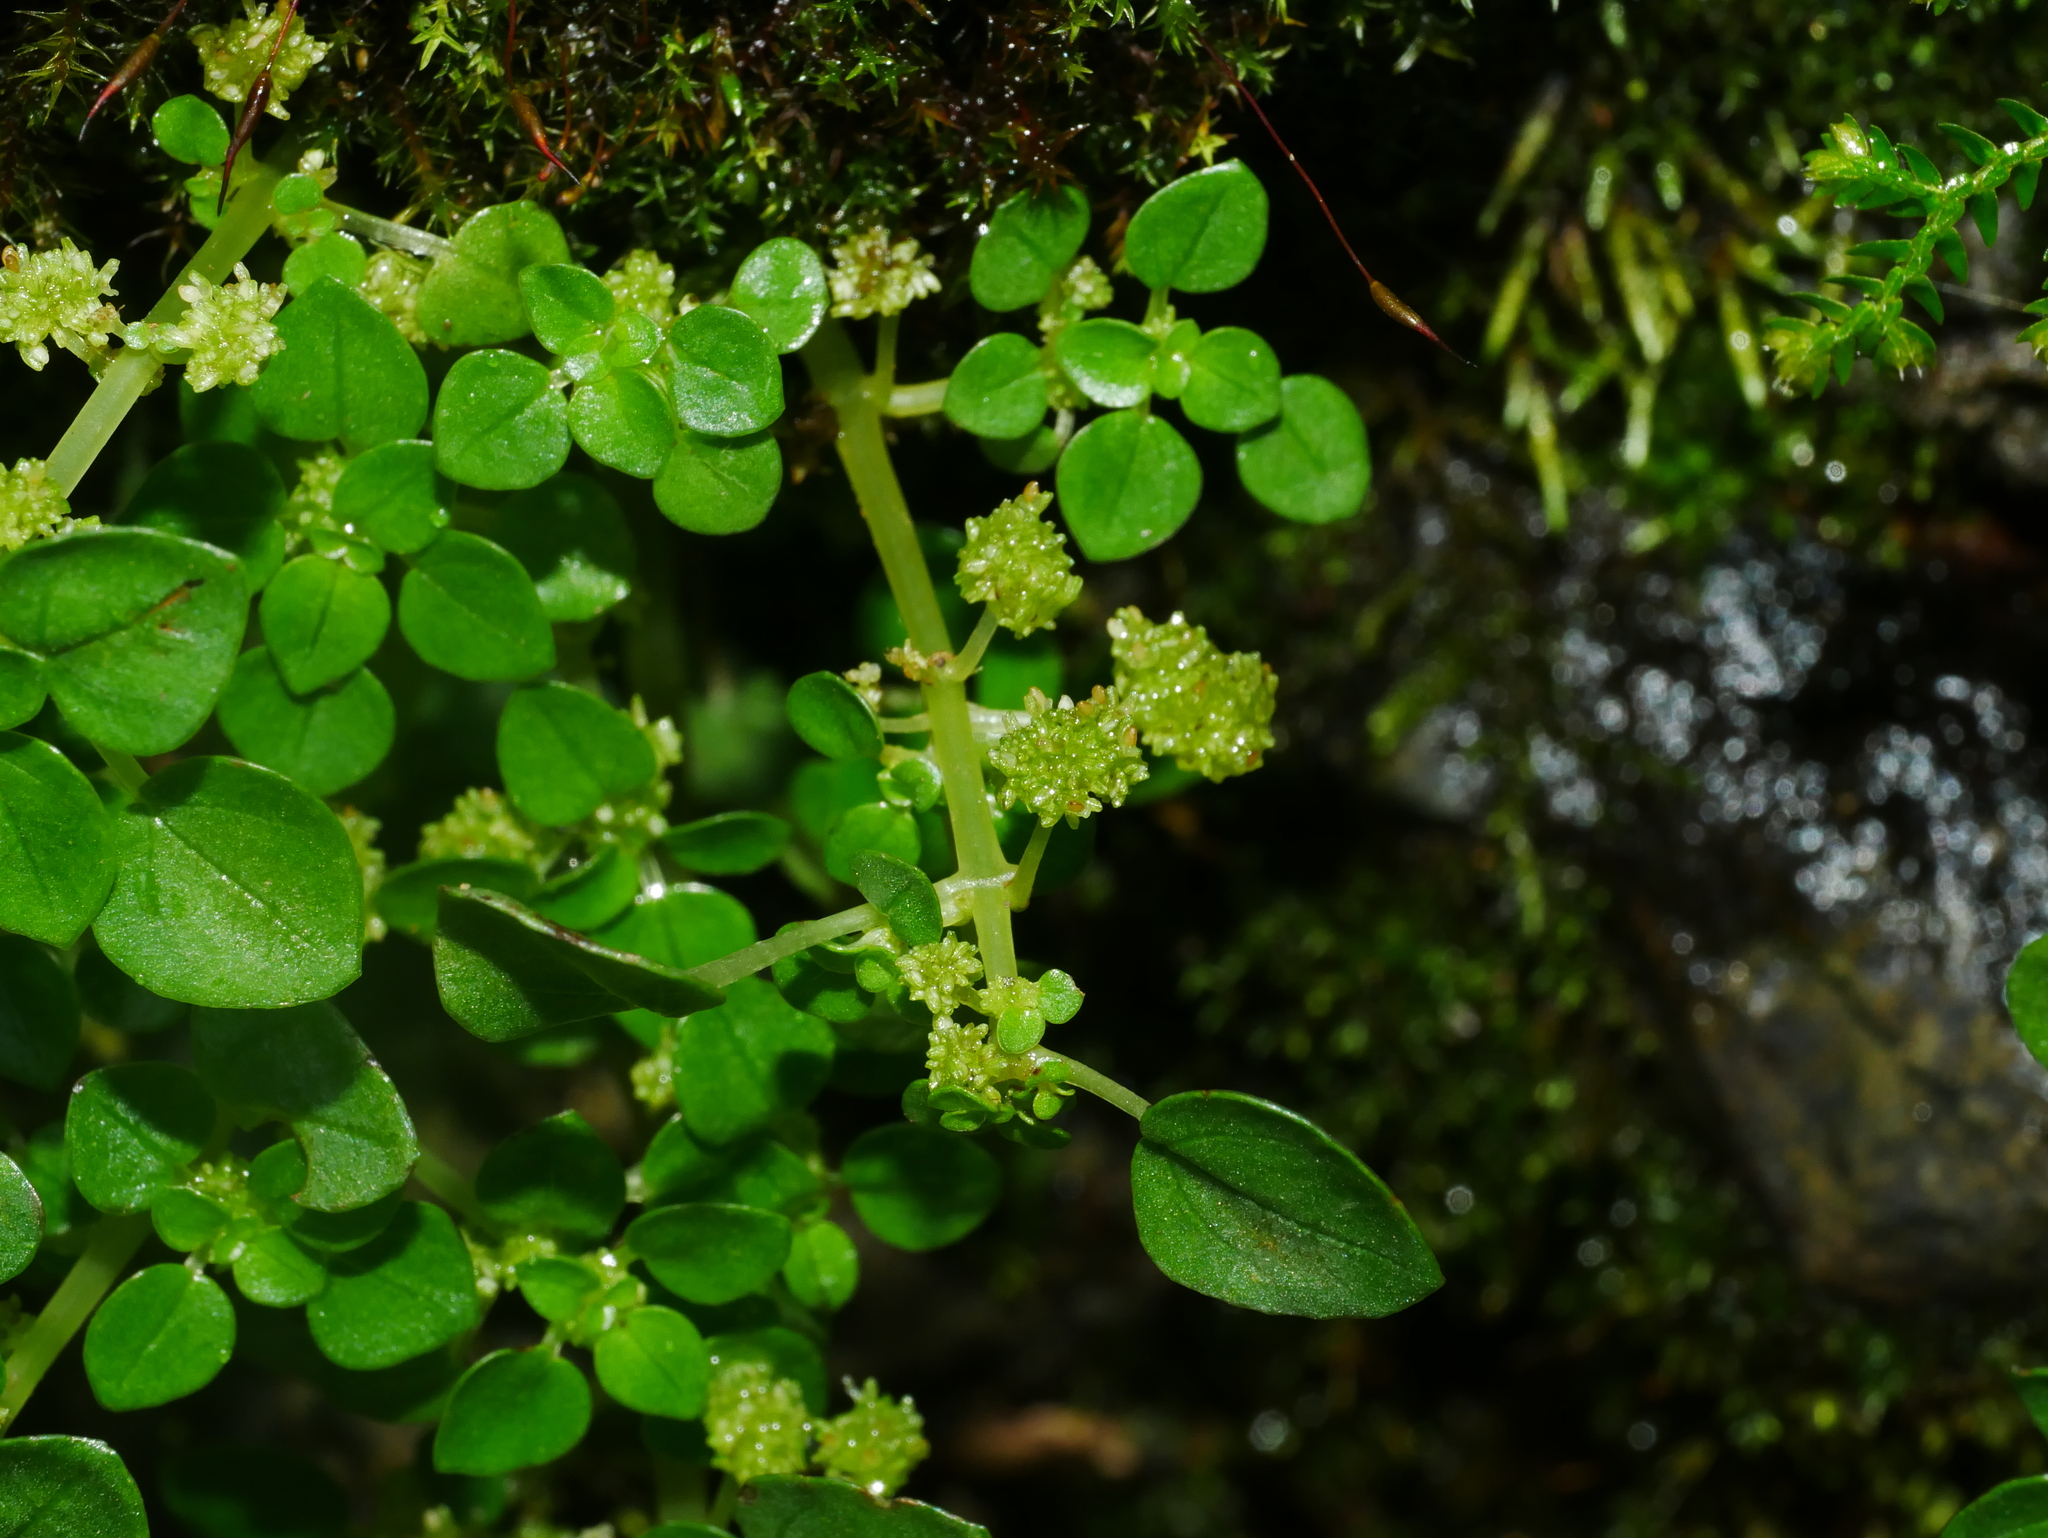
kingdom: Plantae
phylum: Tracheophyta
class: Magnoliopsida
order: Rosales
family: Urticaceae
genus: Pilea
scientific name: Pilea swinglei
